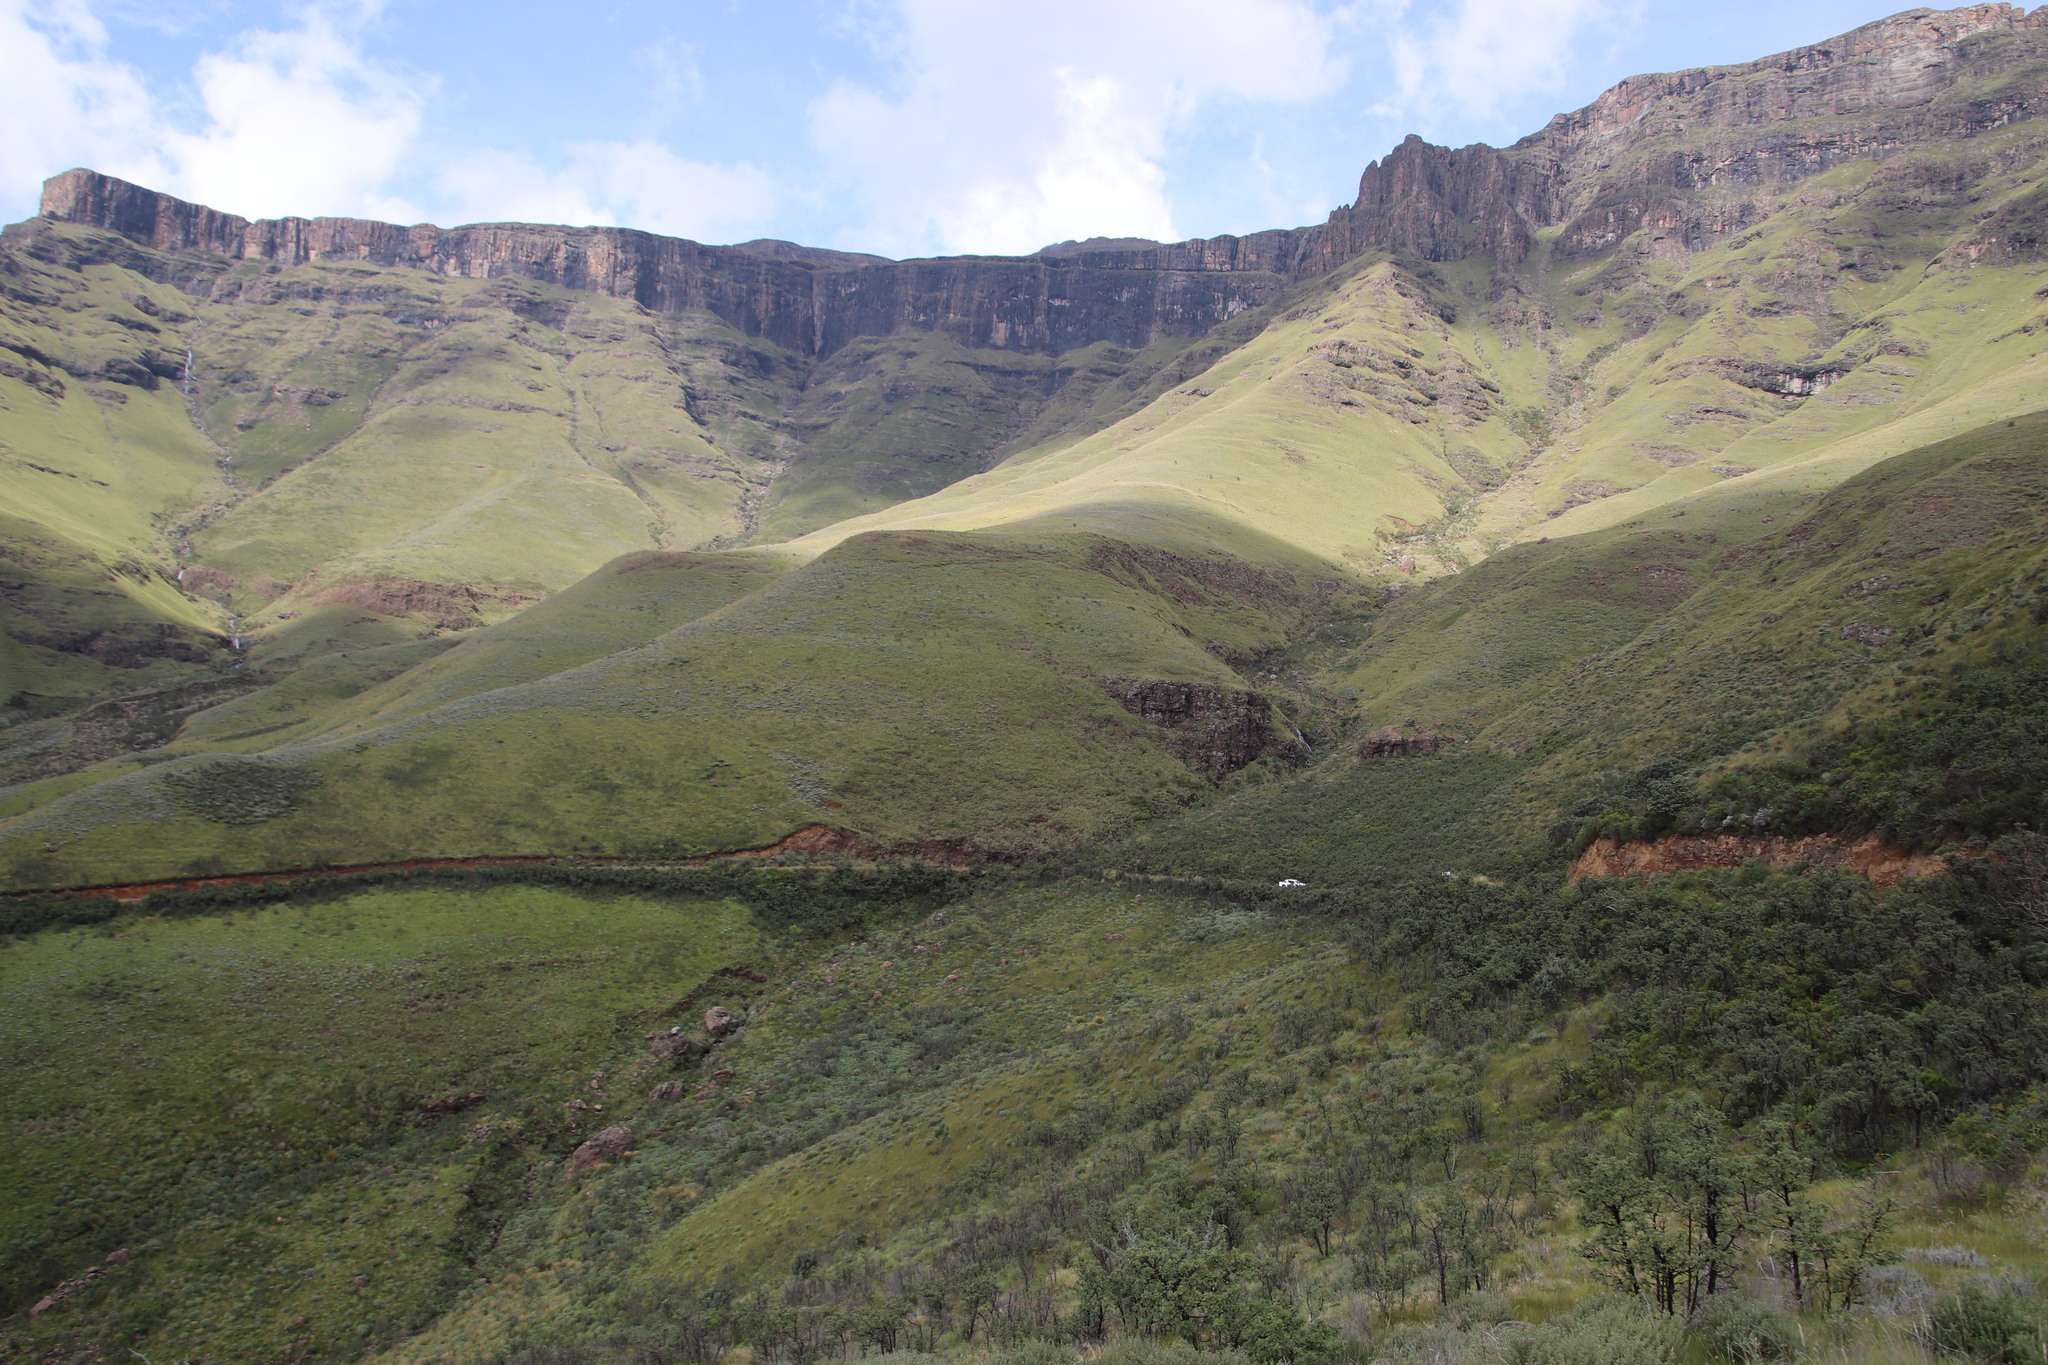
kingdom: Plantae
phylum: Tracheophyta
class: Magnoliopsida
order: Proteales
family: Proteaceae
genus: Protea
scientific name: Protea subvestita
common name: Lip-flower sugarbush
